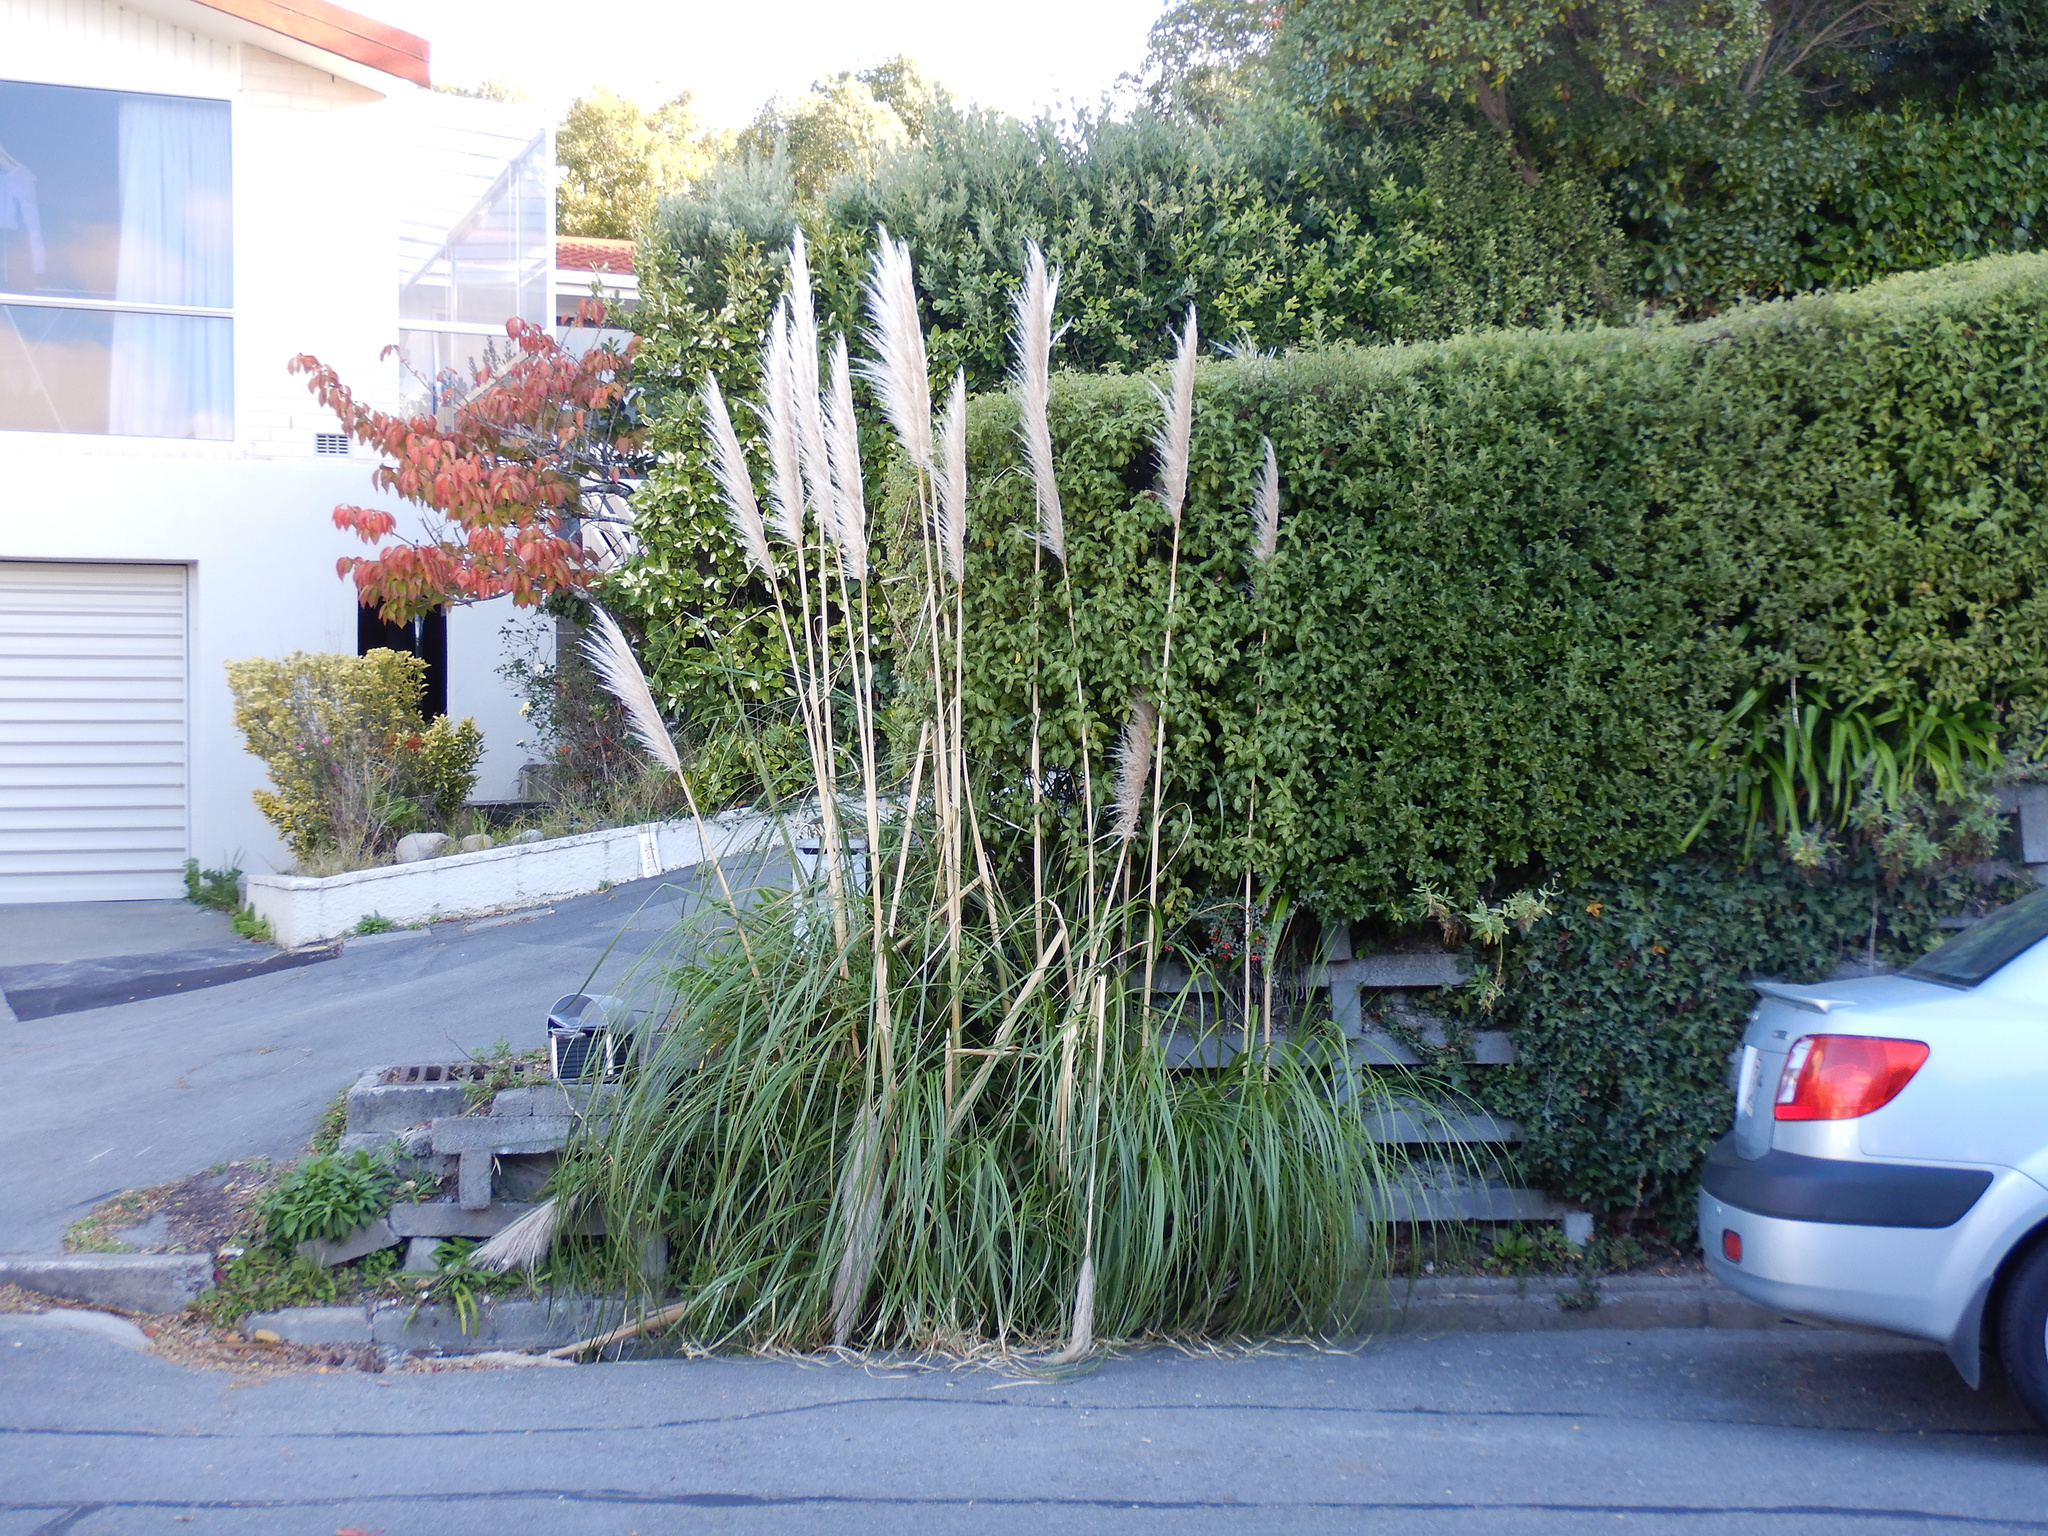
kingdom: Plantae
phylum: Tracheophyta
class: Liliopsida
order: Poales
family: Poaceae
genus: Cortaderia
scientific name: Cortaderia selloana
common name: Uruguayan pampas grass
